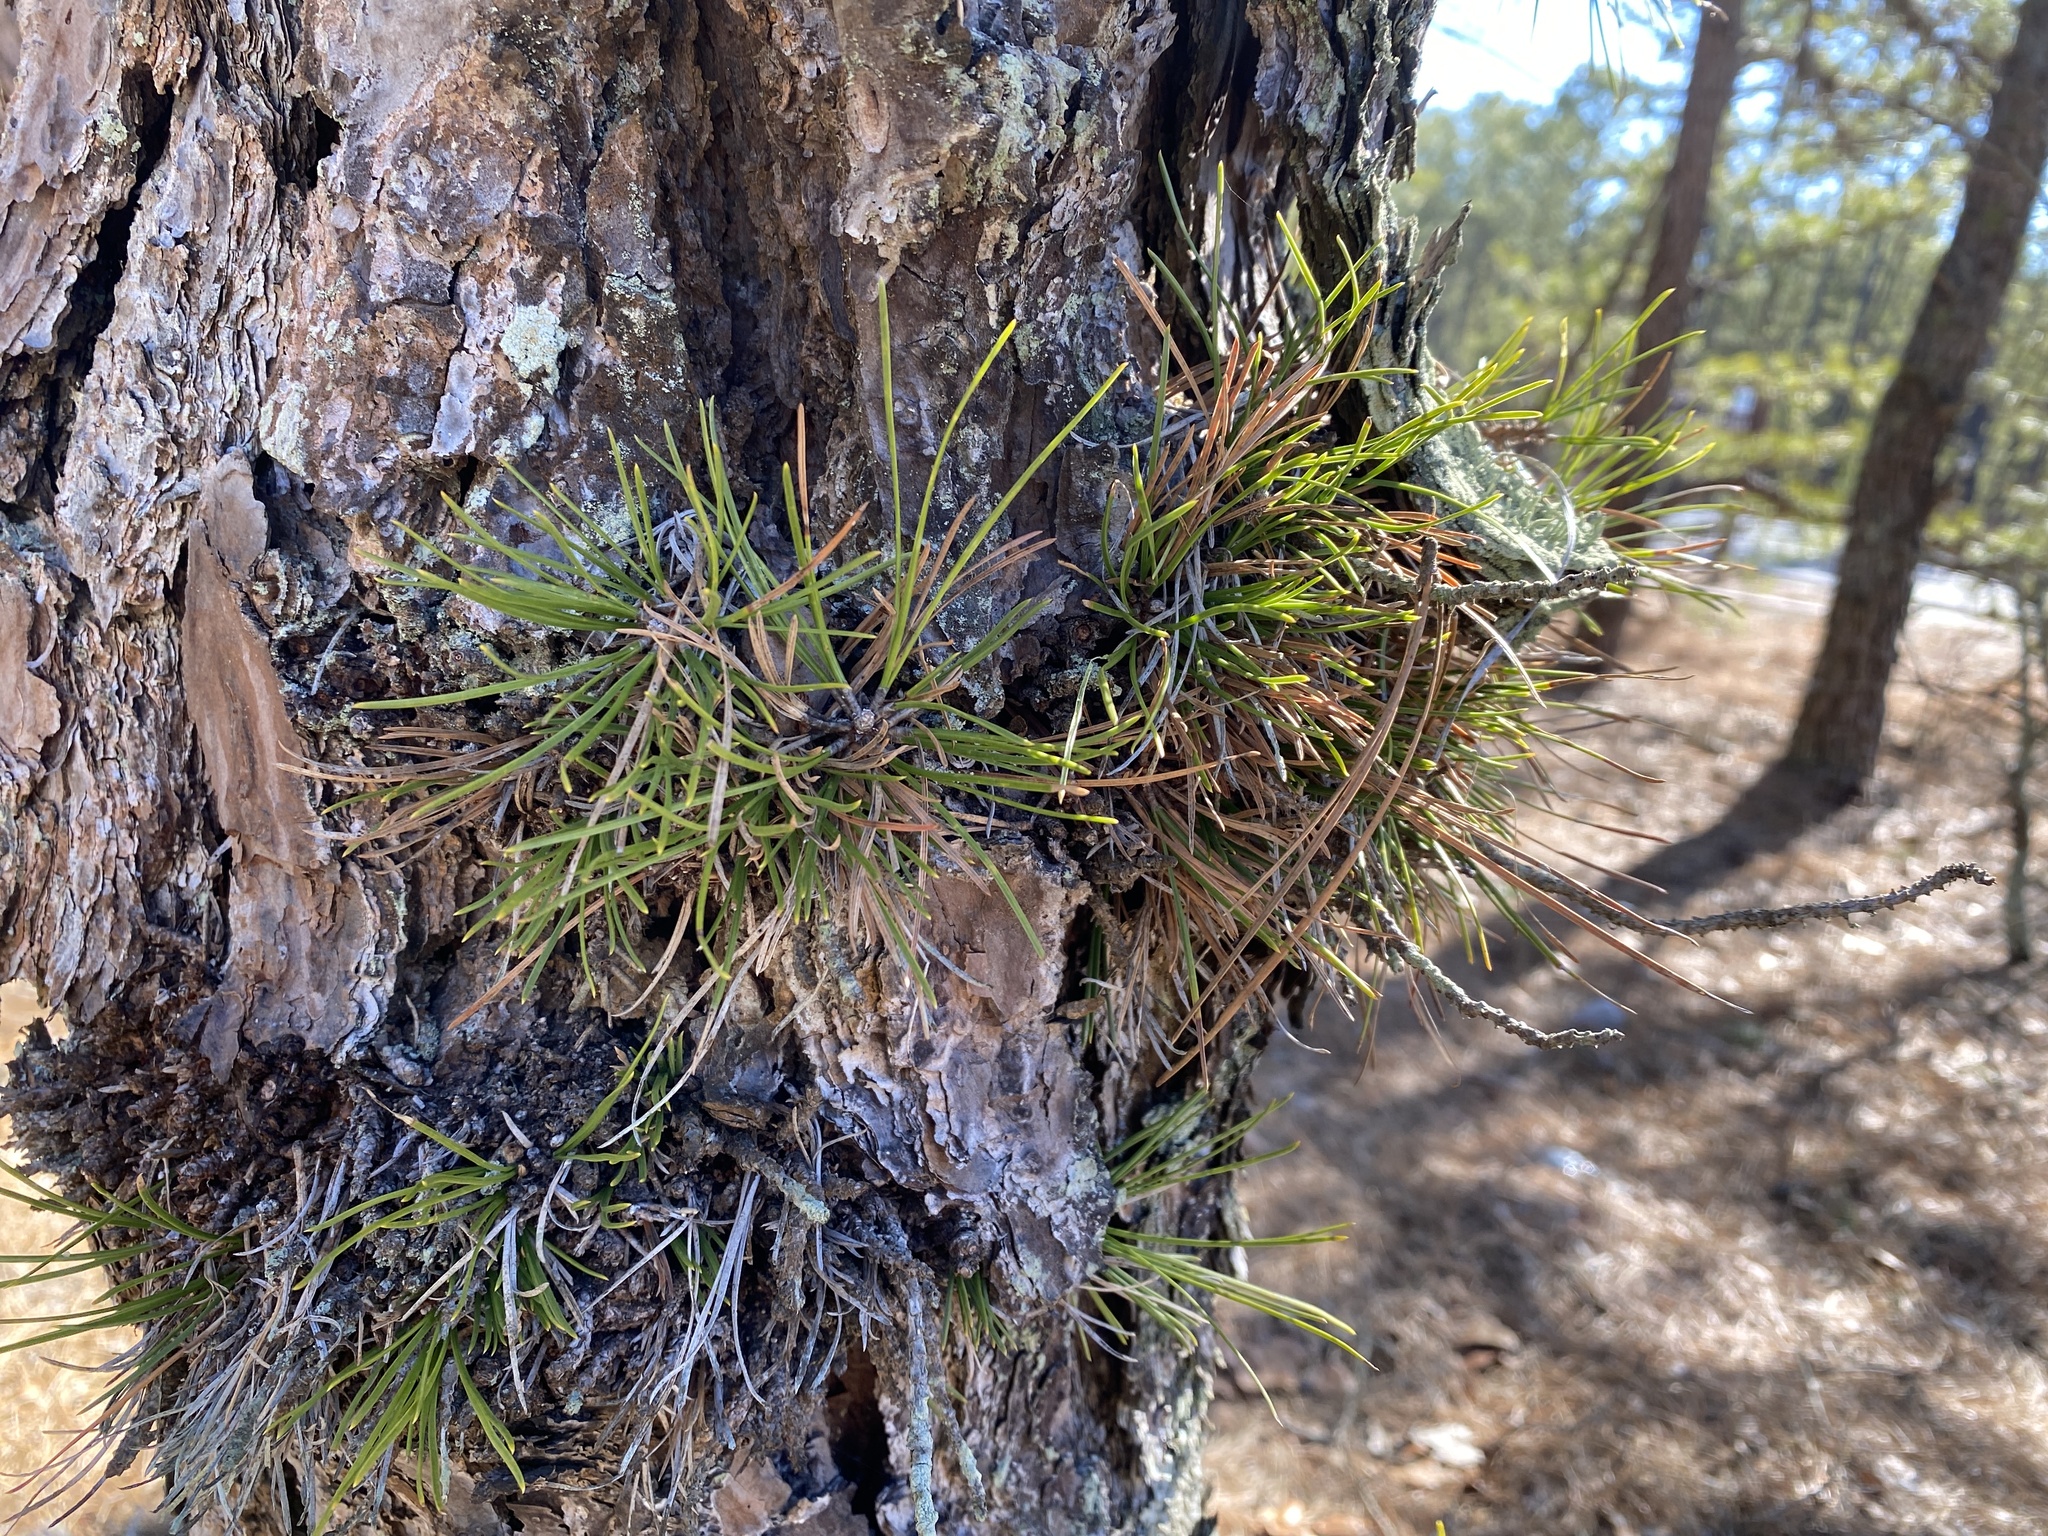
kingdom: Plantae
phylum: Tracheophyta
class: Pinopsida
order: Pinales
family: Pinaceae
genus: Pinus
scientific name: Pinus rigida
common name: Pitch pine
